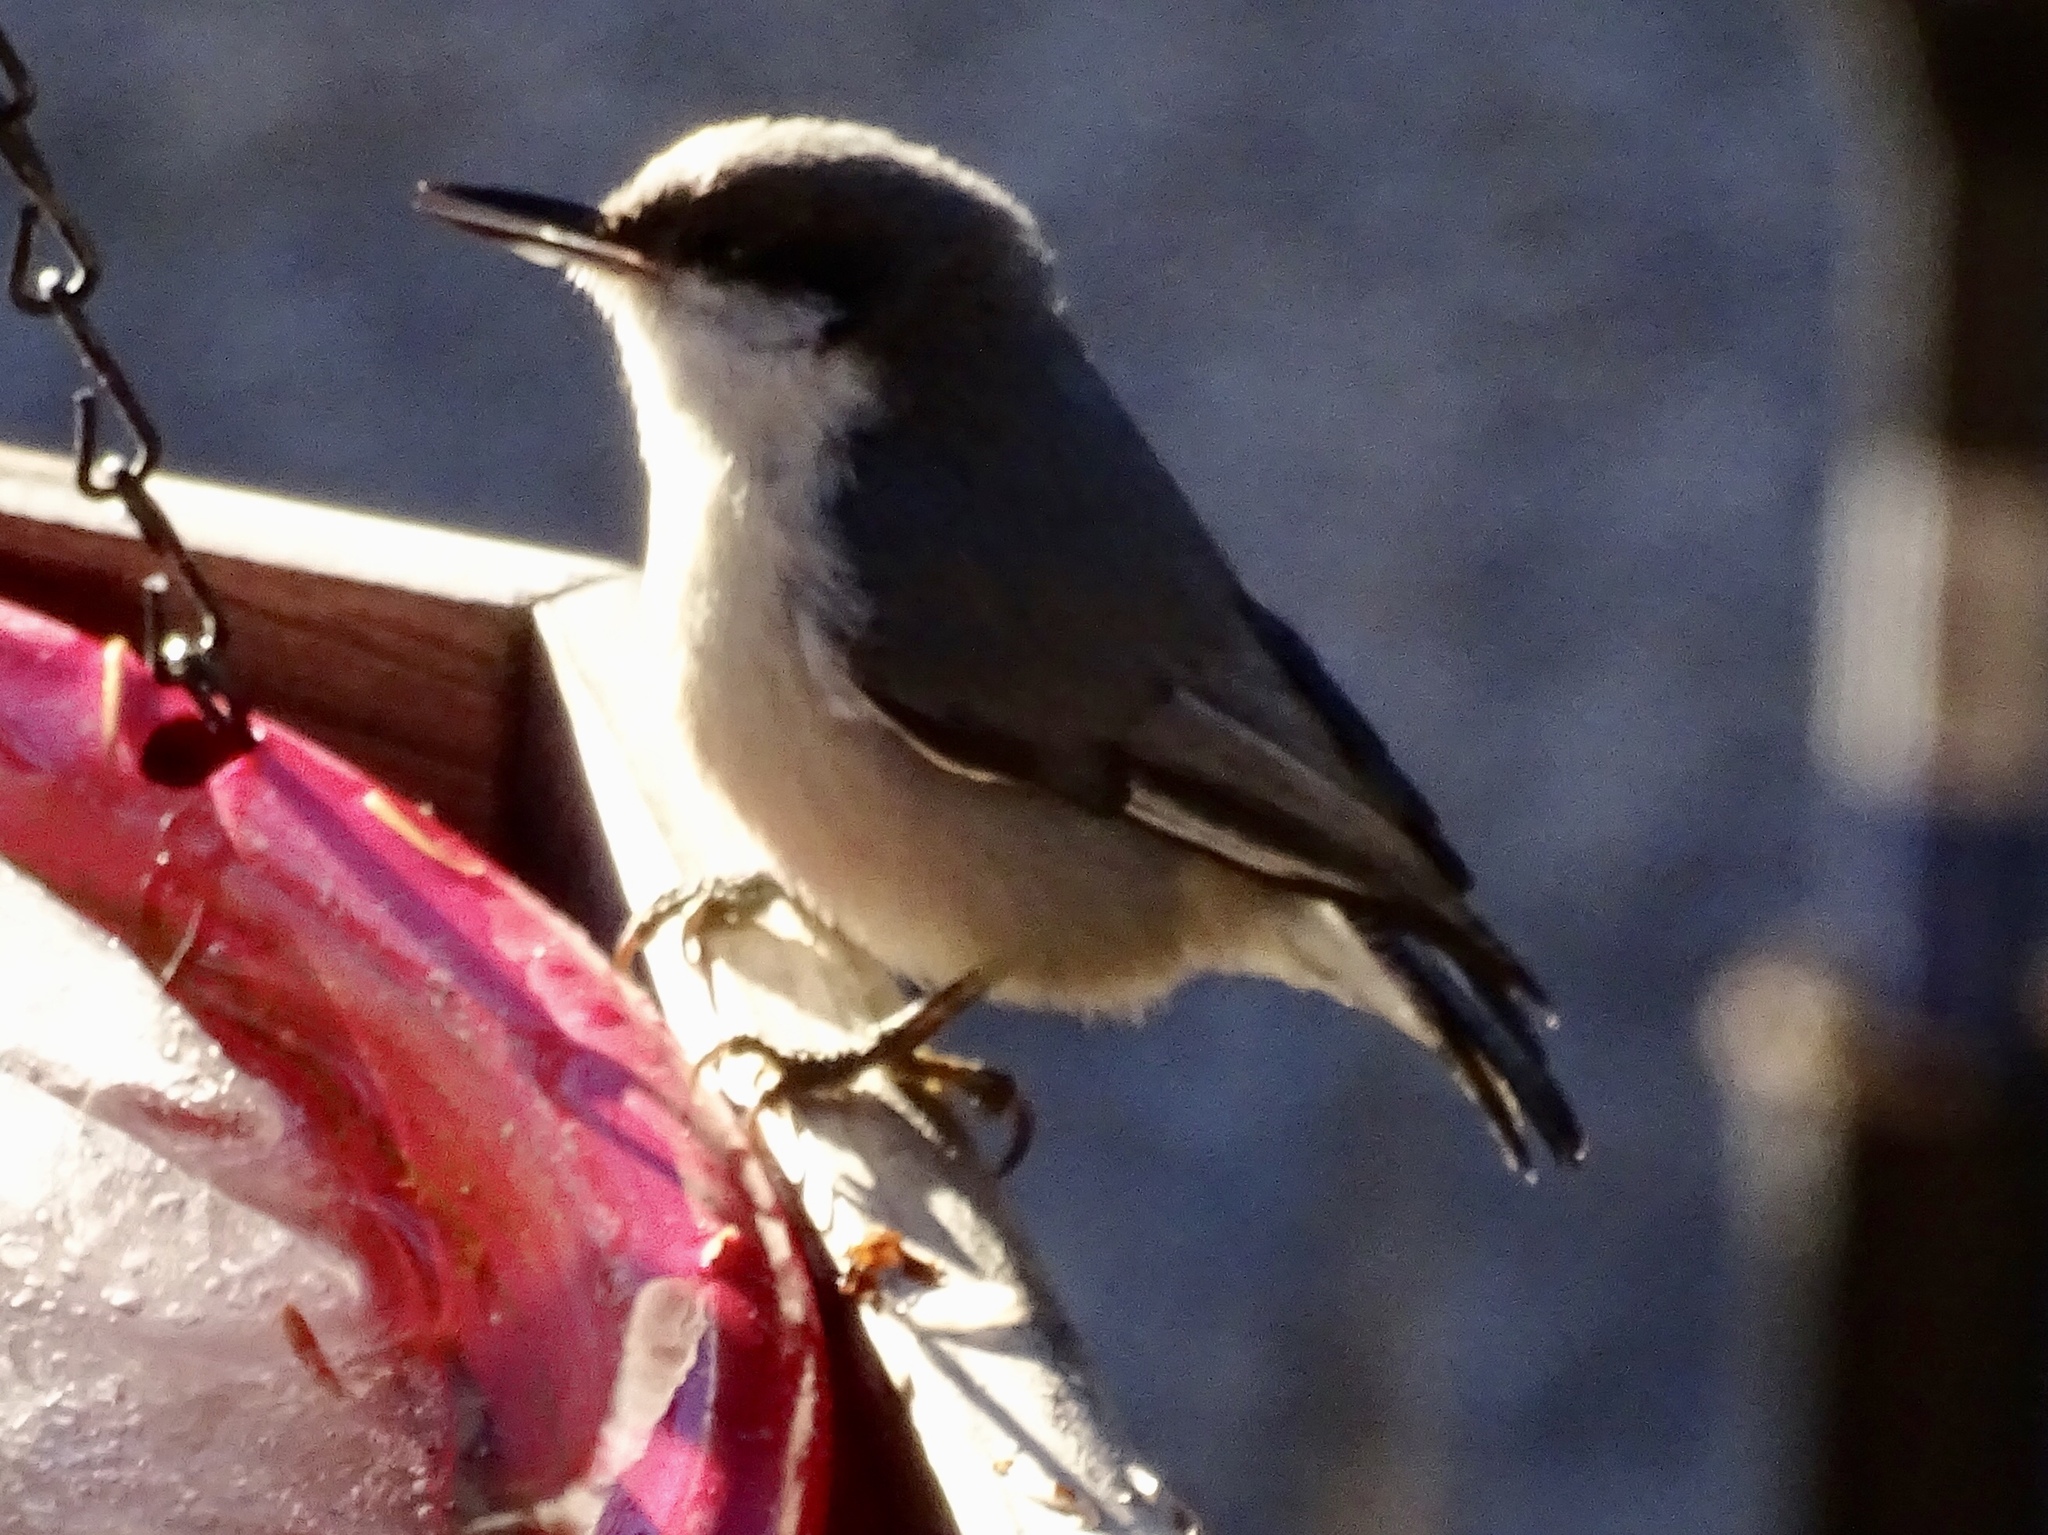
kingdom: Animalia
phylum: Chordata
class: Aves
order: Passeriformes
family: Sittidae
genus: Sitta
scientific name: Sitta pygmaea
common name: Pygmy nuthatch
